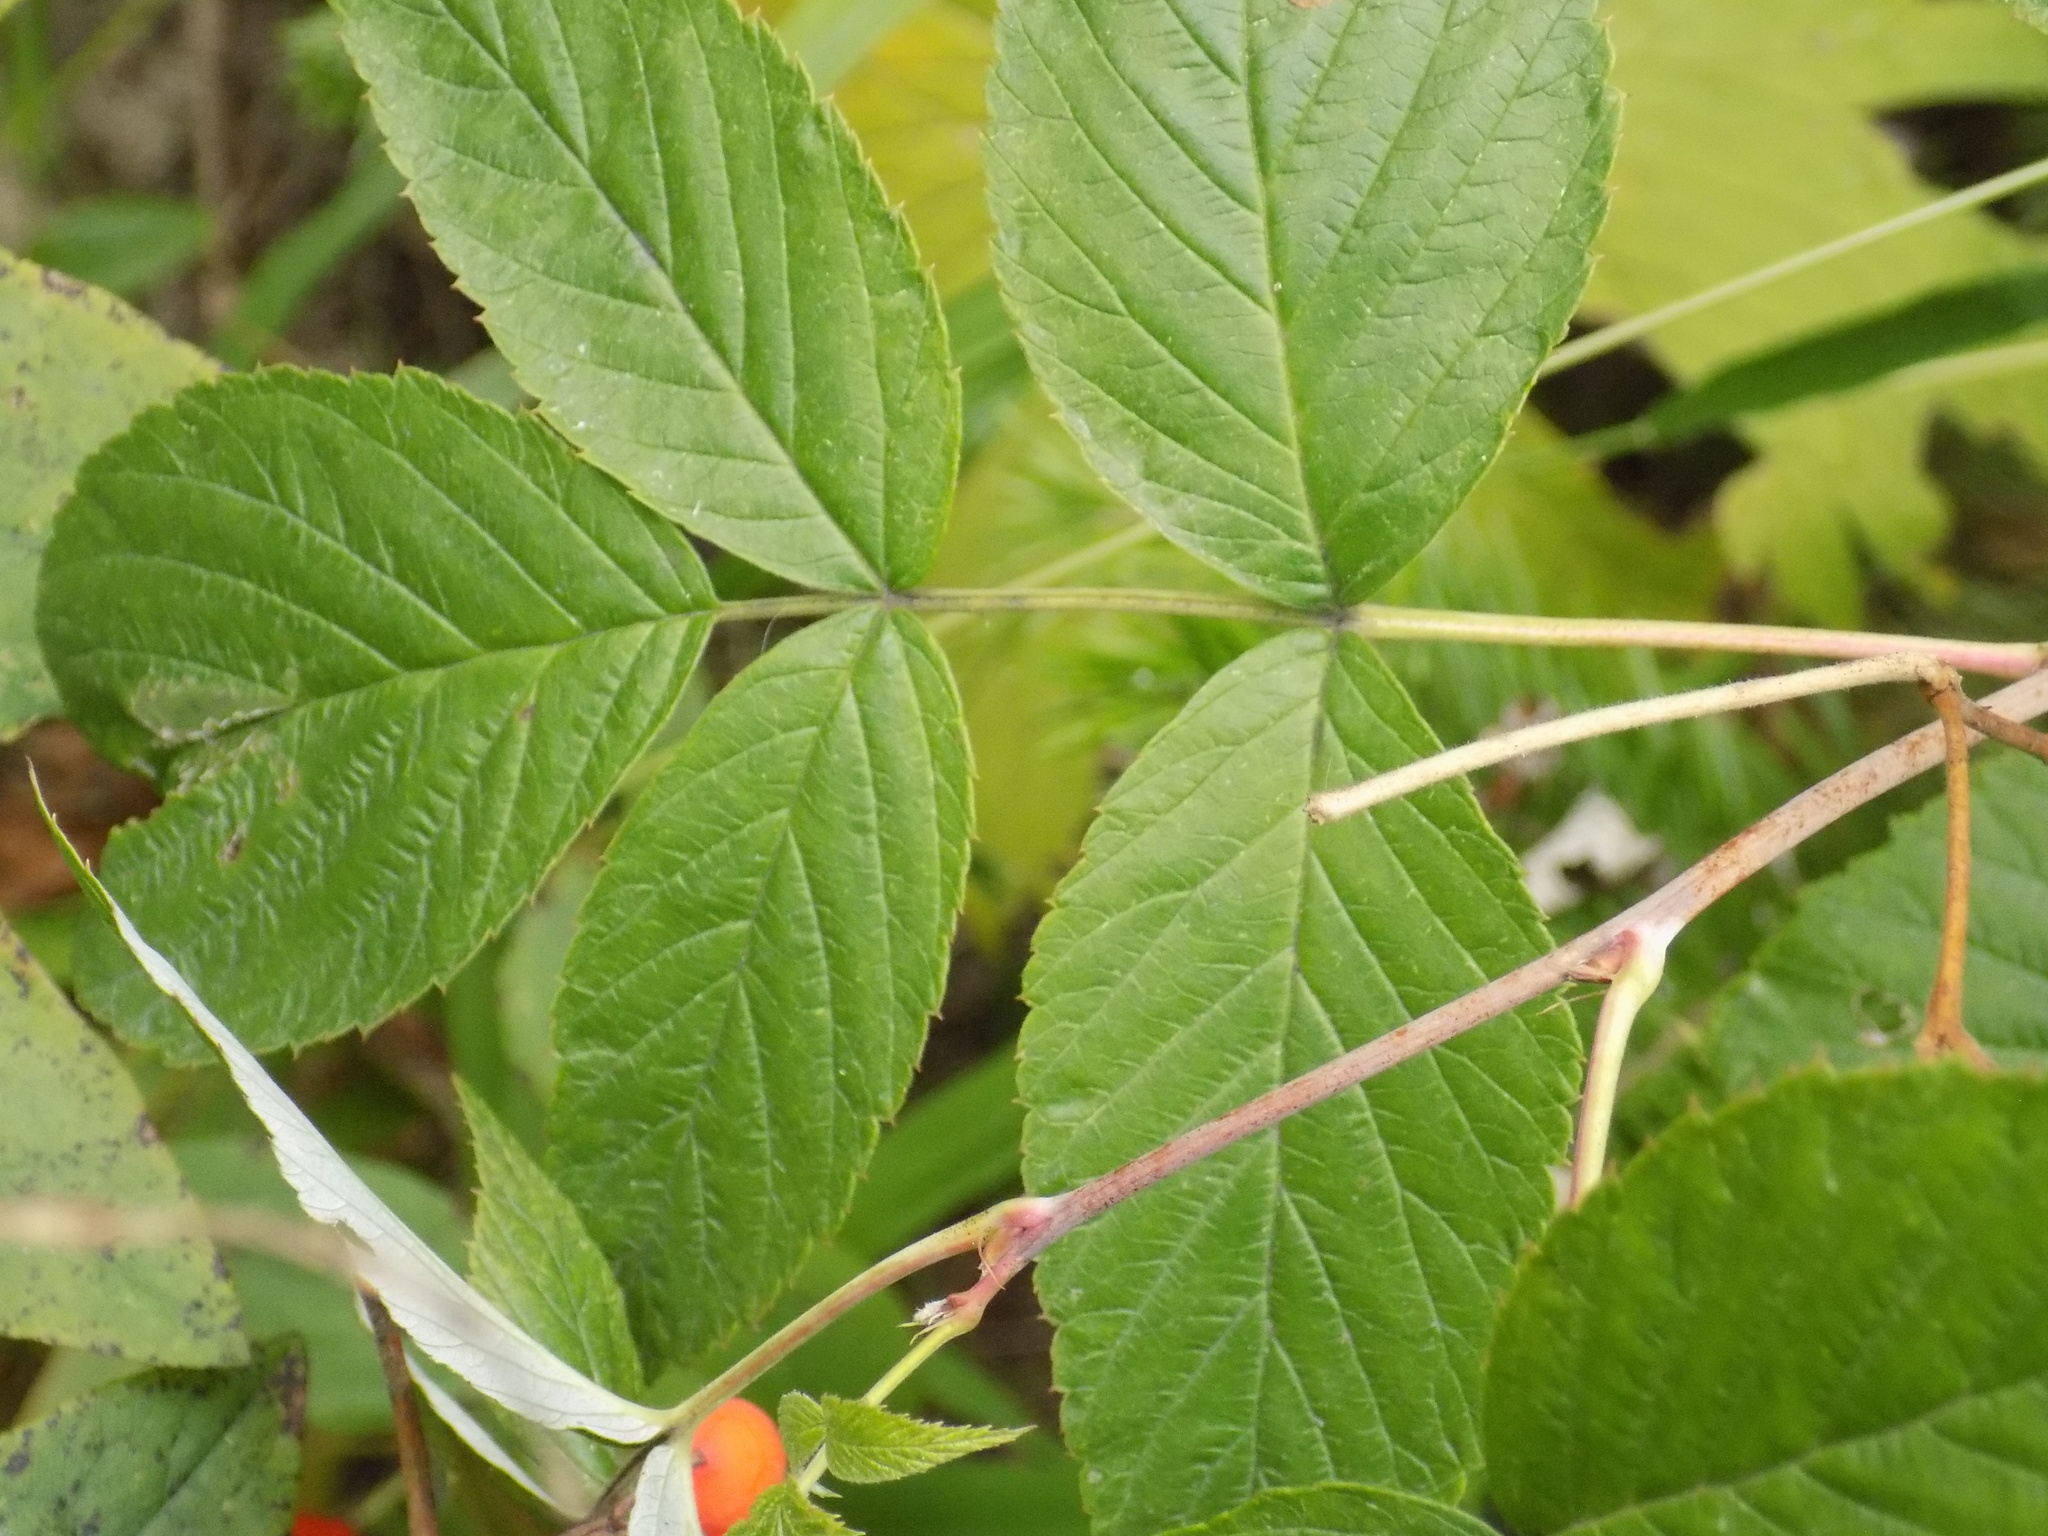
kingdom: Plantae
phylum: Tracheophyta
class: Magnoliopsida
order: Rosales
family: Rosaceae
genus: Rubus
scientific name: Rubus idaeus
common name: Raspberry
